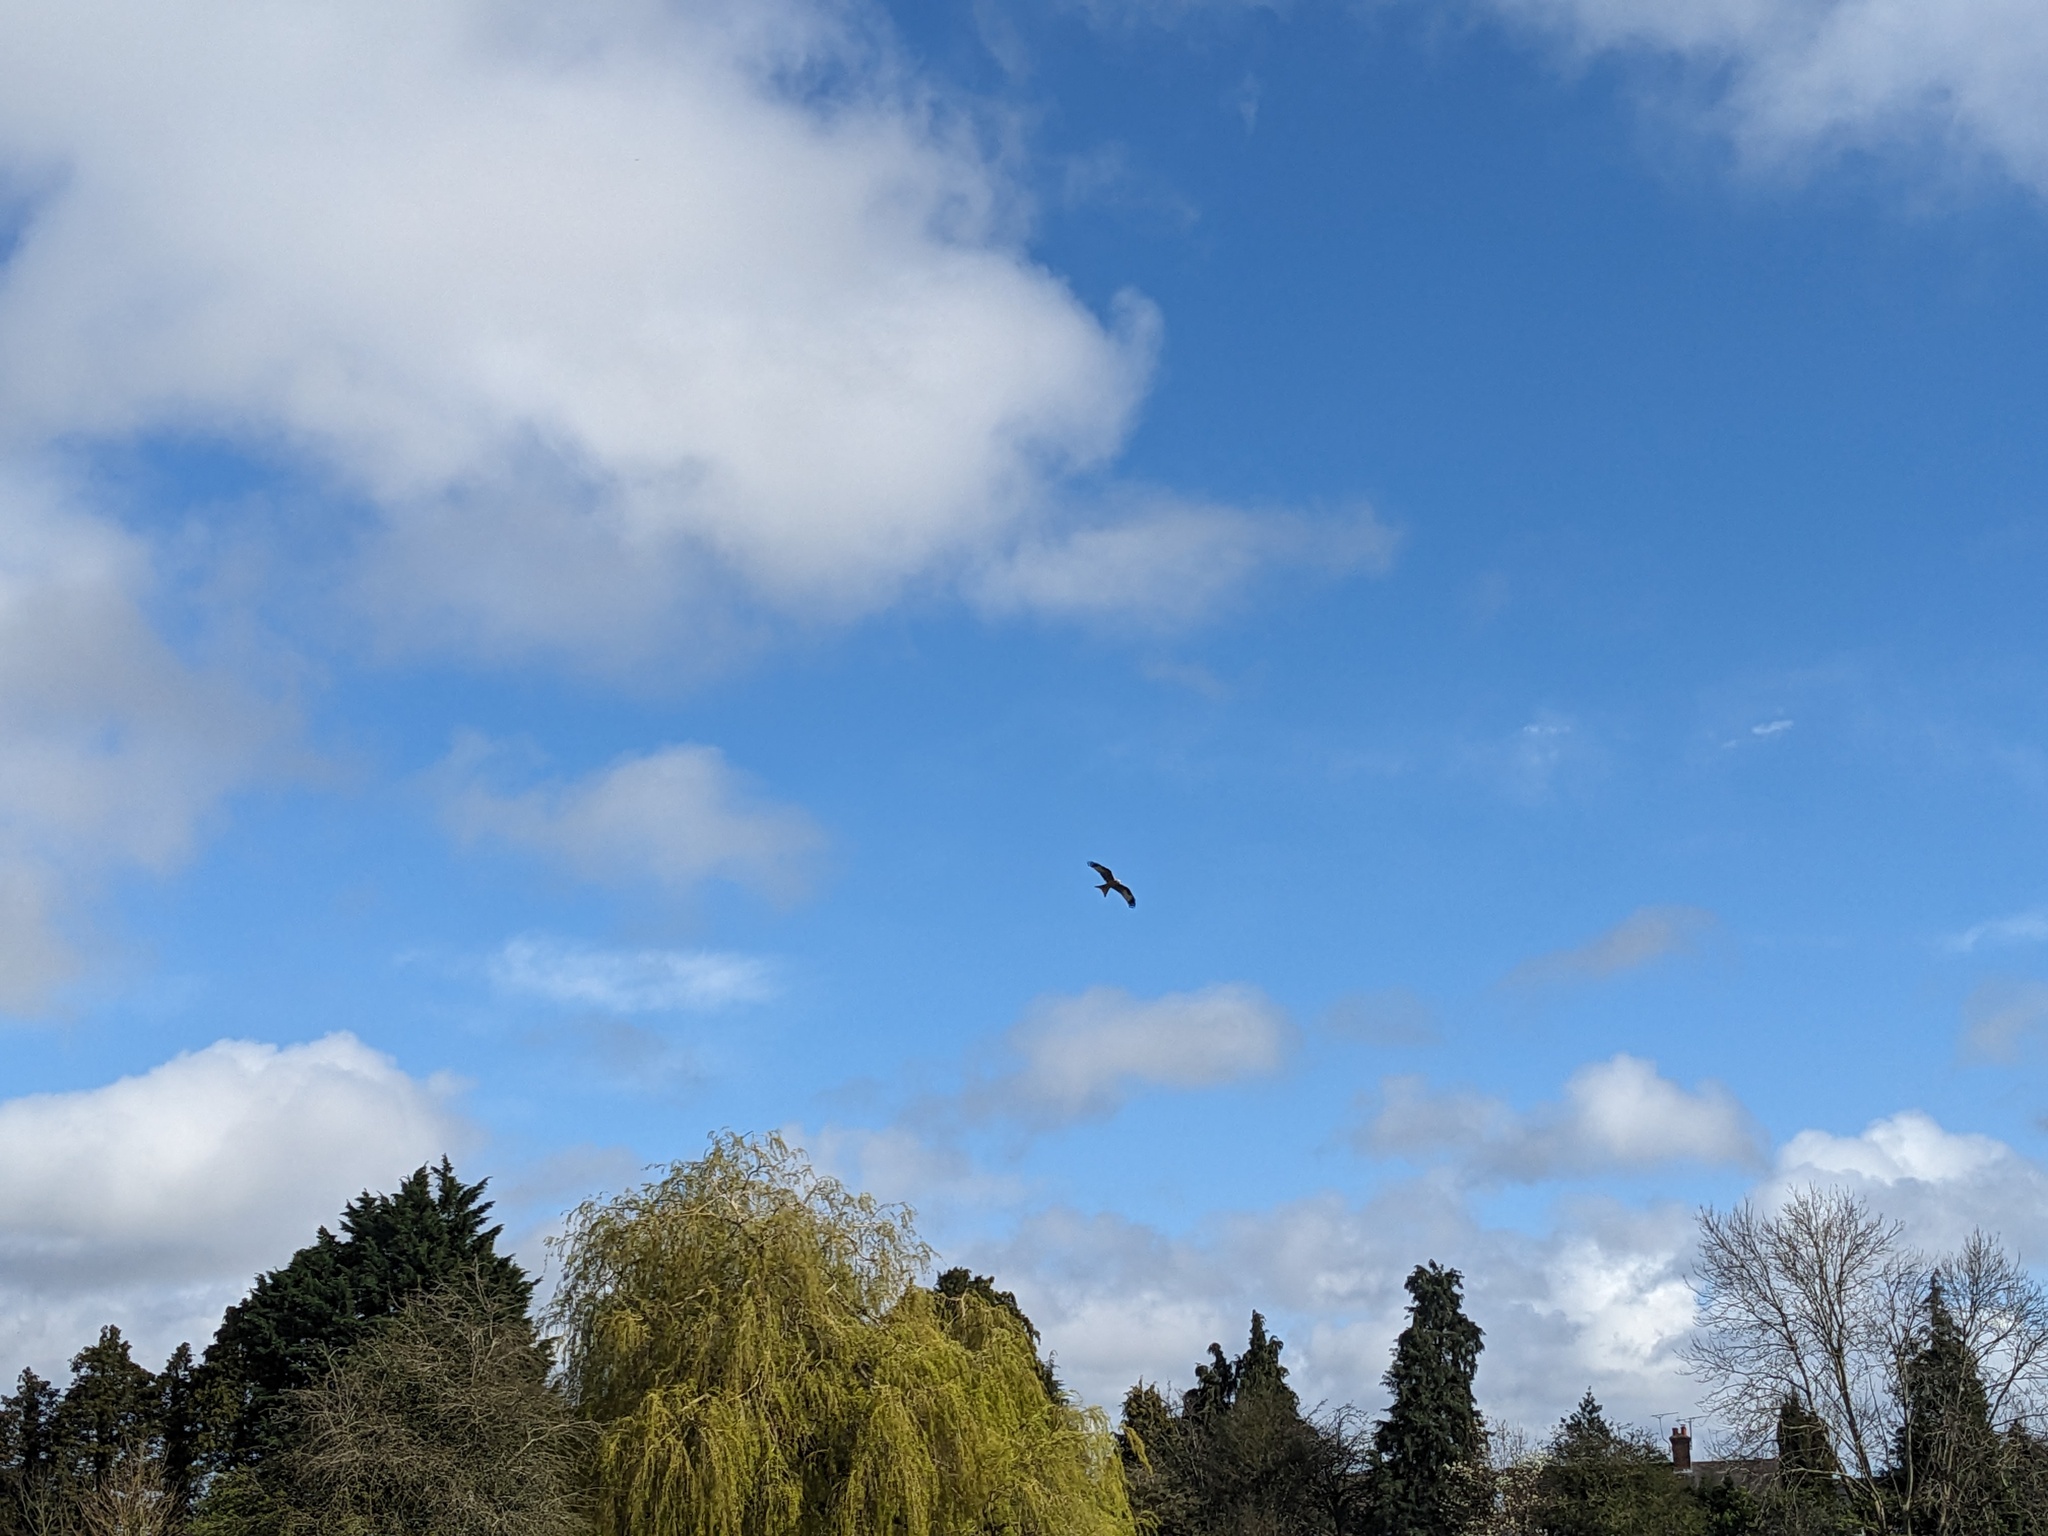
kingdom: Animalia
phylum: Chordata
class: Aves
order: Accipitriformes
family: Accipitridae
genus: Milvus
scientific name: Milvus milvus
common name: Red kite
